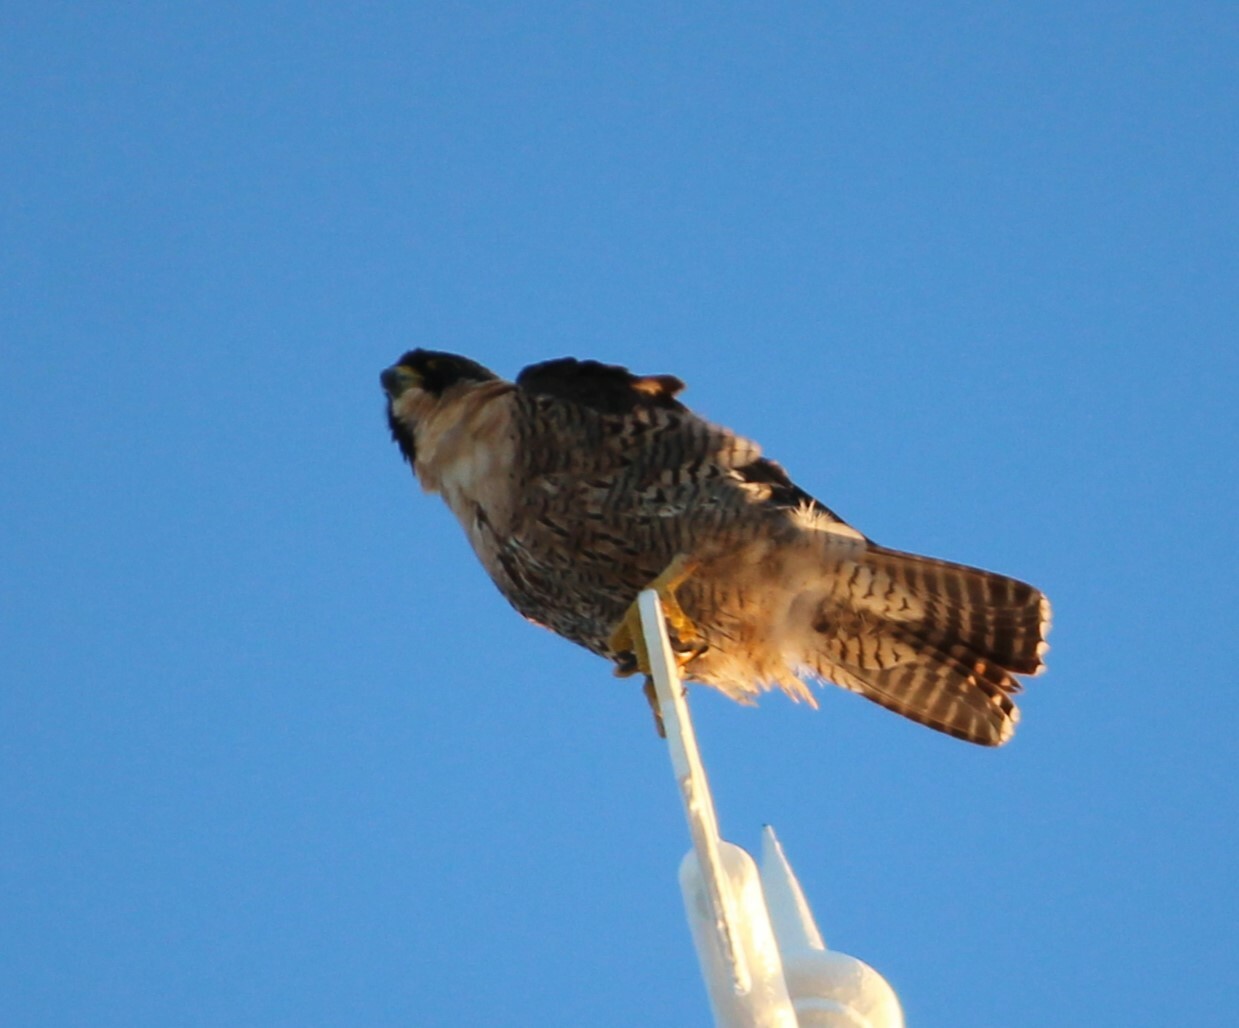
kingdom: Animalia
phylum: Chordata
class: Aves
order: Falconiformes
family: Falconidae
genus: Falco
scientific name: Falco peregrinus
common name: Peregrine falcon
